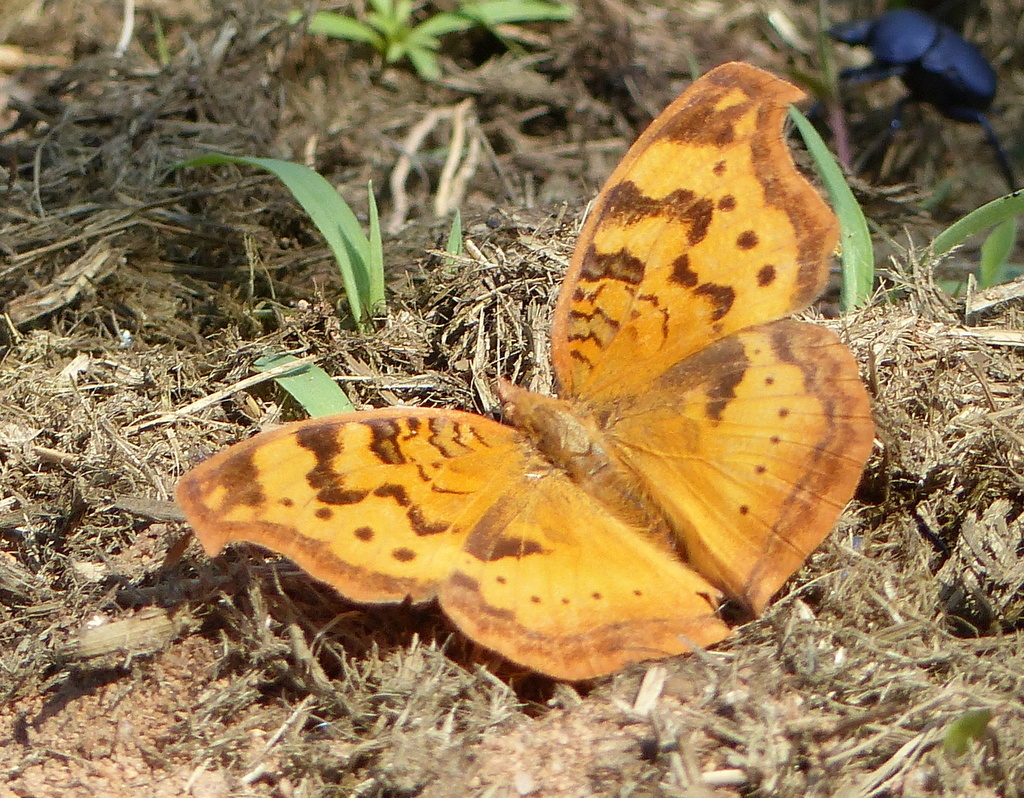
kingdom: Animalia
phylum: Arthropoda
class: Insecta
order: Lepidoptera
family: Nymphalidae
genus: Junonia
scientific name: Junonia antilope
